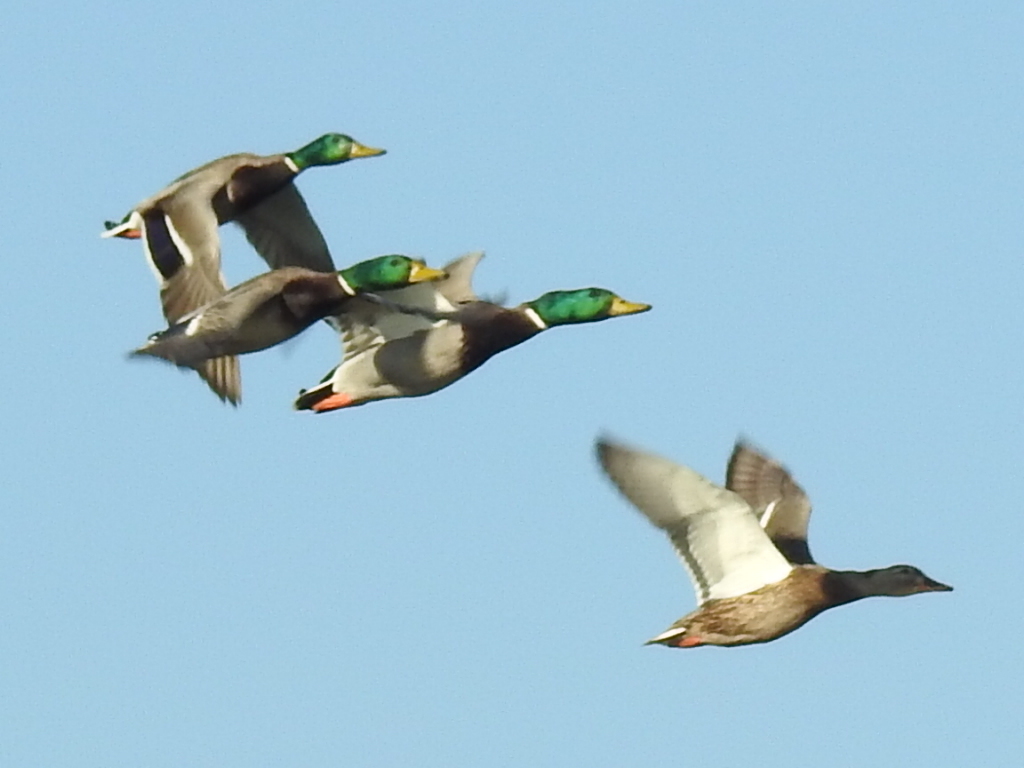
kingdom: Animalia
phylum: Chordata
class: Aves
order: Anseriformes
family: Anatidae
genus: Anas
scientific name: Anas platyrhynchos
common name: Mallard
